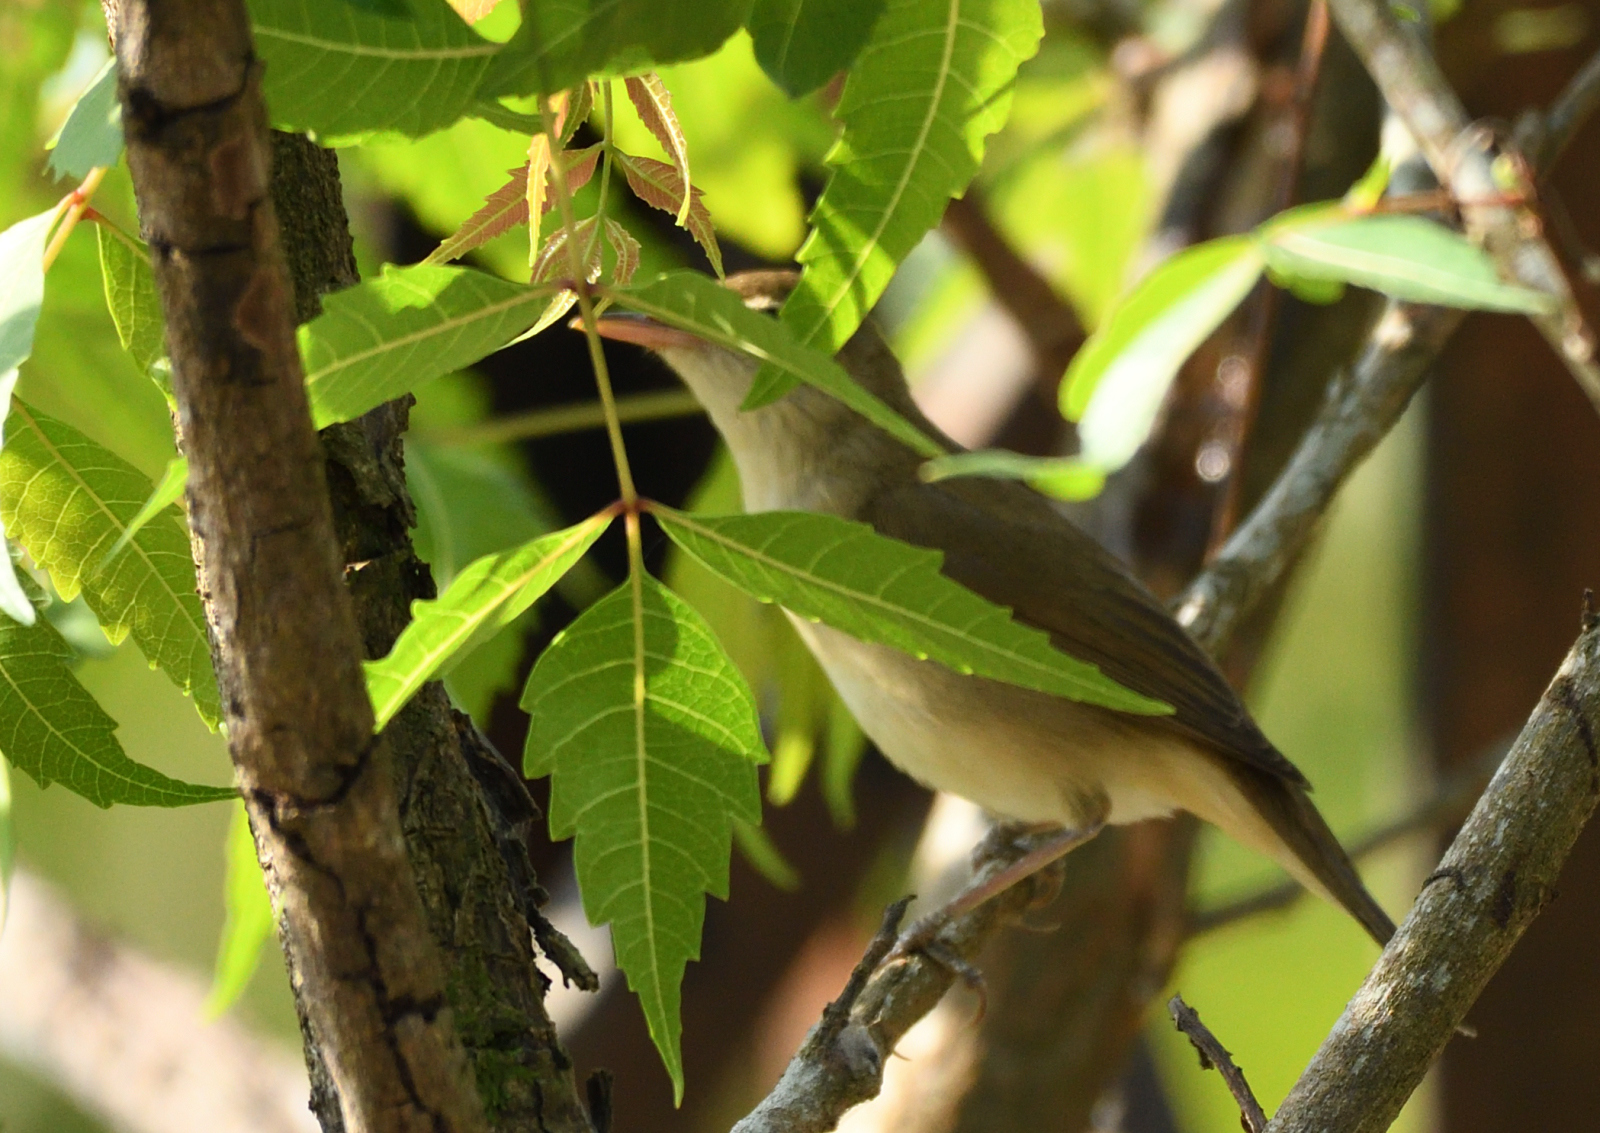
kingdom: Animalia
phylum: Chordata
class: Aves
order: Passeriformes
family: Acrocephalidae
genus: Acrocephalus
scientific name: Acrocephalus dumetorum
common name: Blyth's reed warbler
